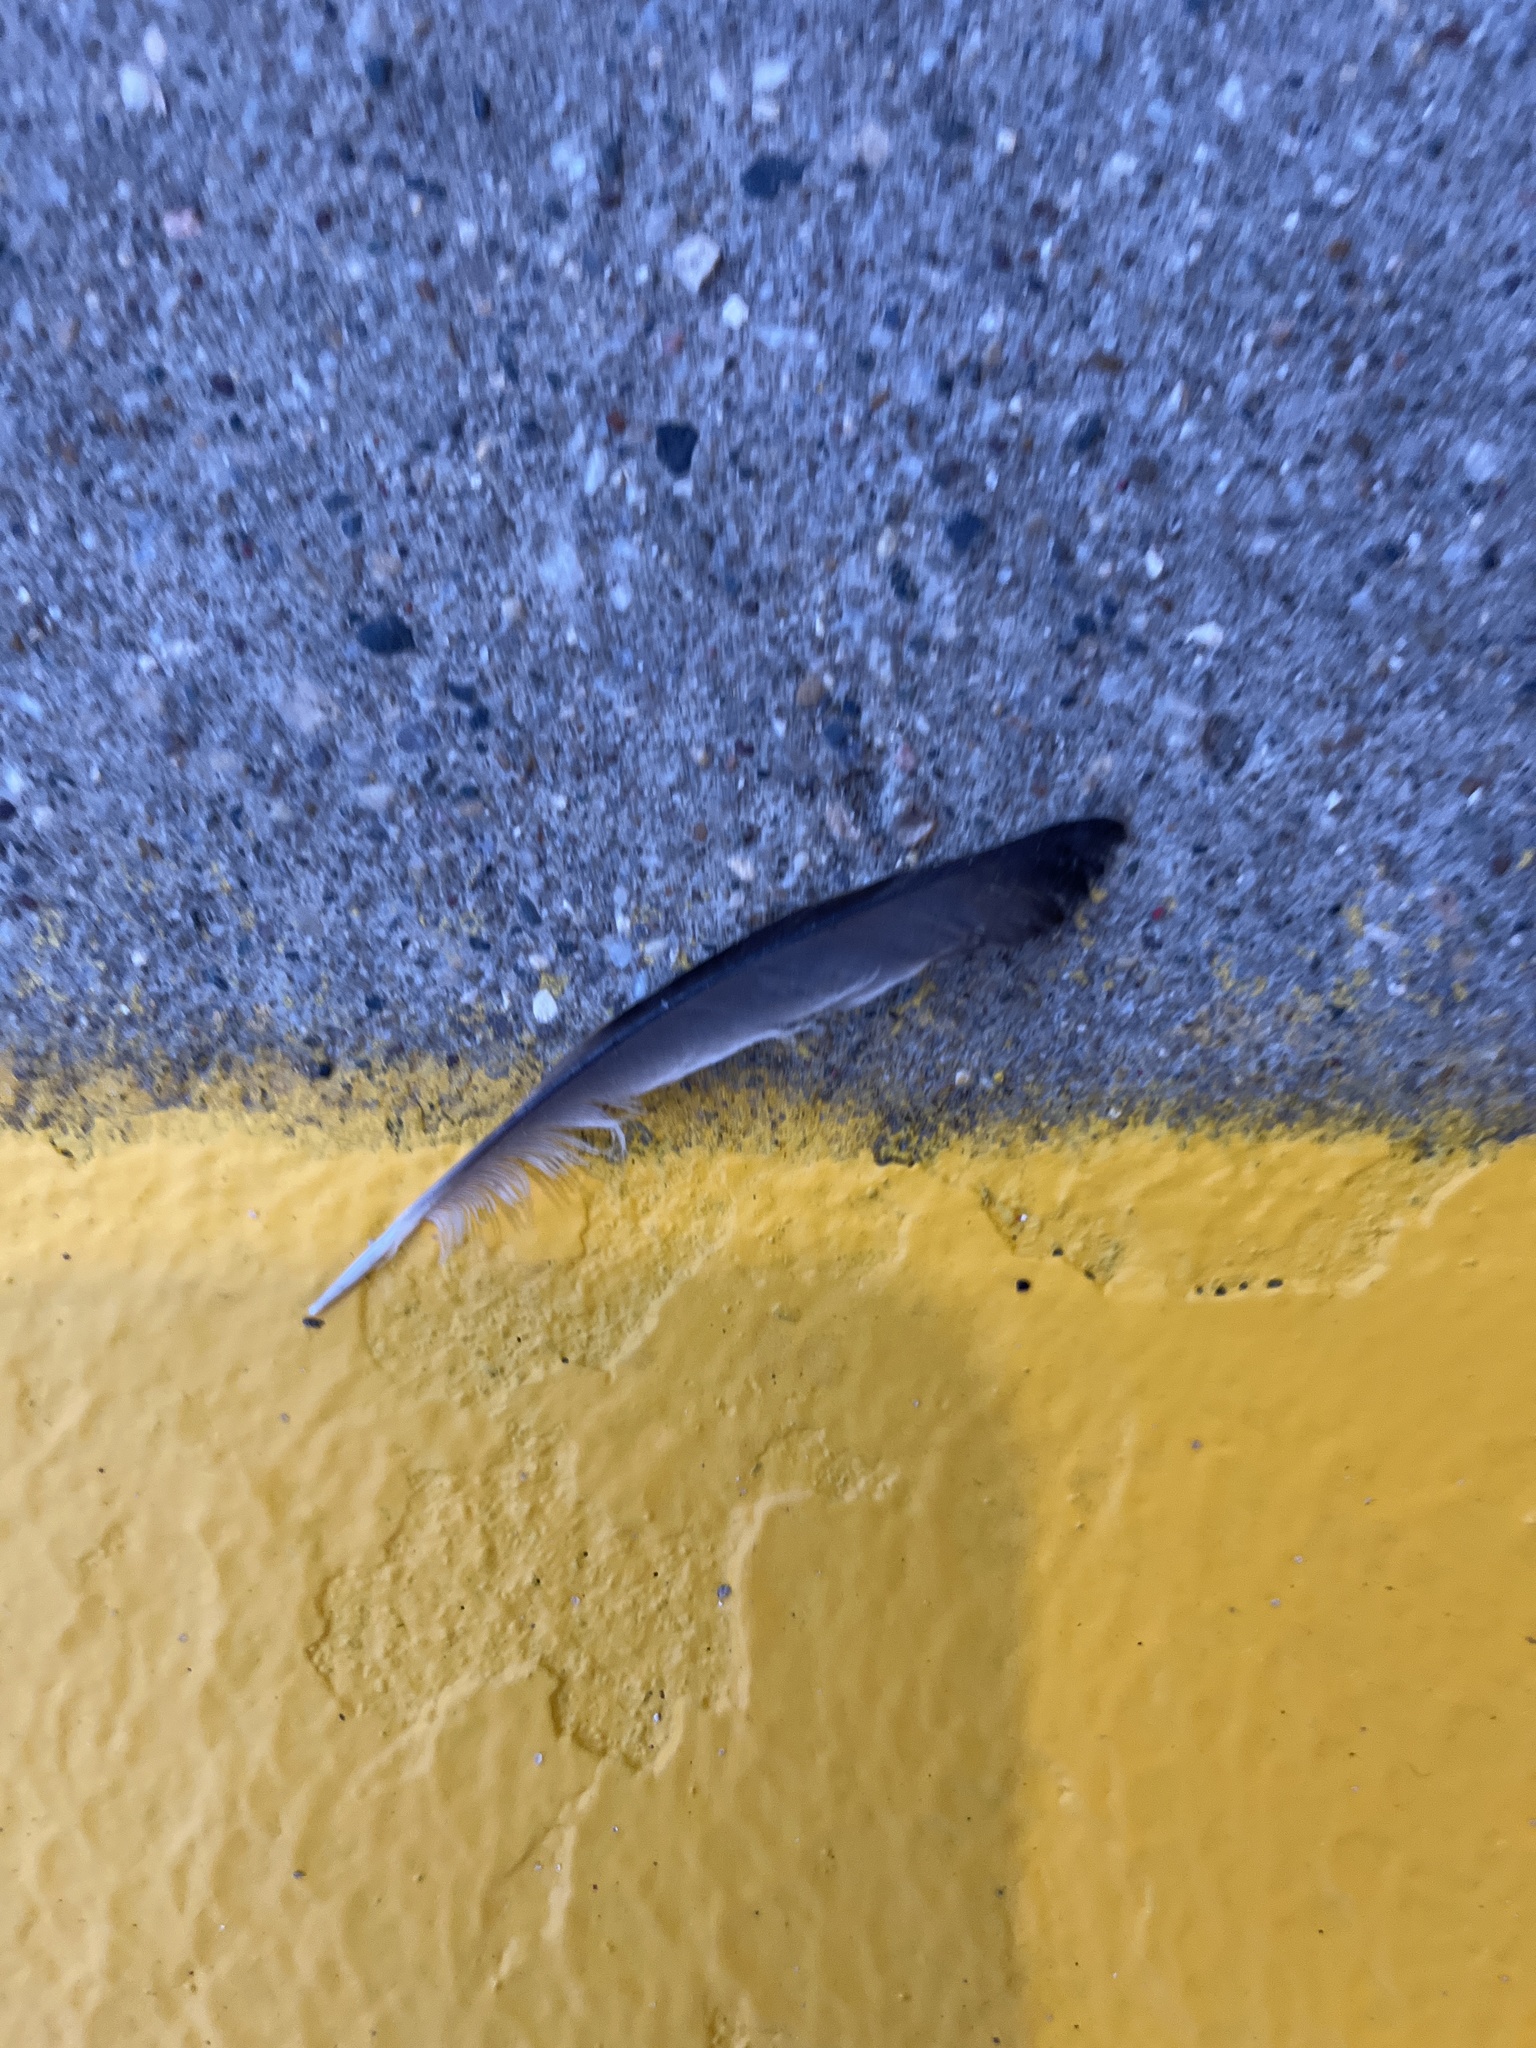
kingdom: Animalia
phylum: Chordata
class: Aves
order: Columbiformes
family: Columbidae
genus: Columba
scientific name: Columba livia
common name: Rock pigeon
